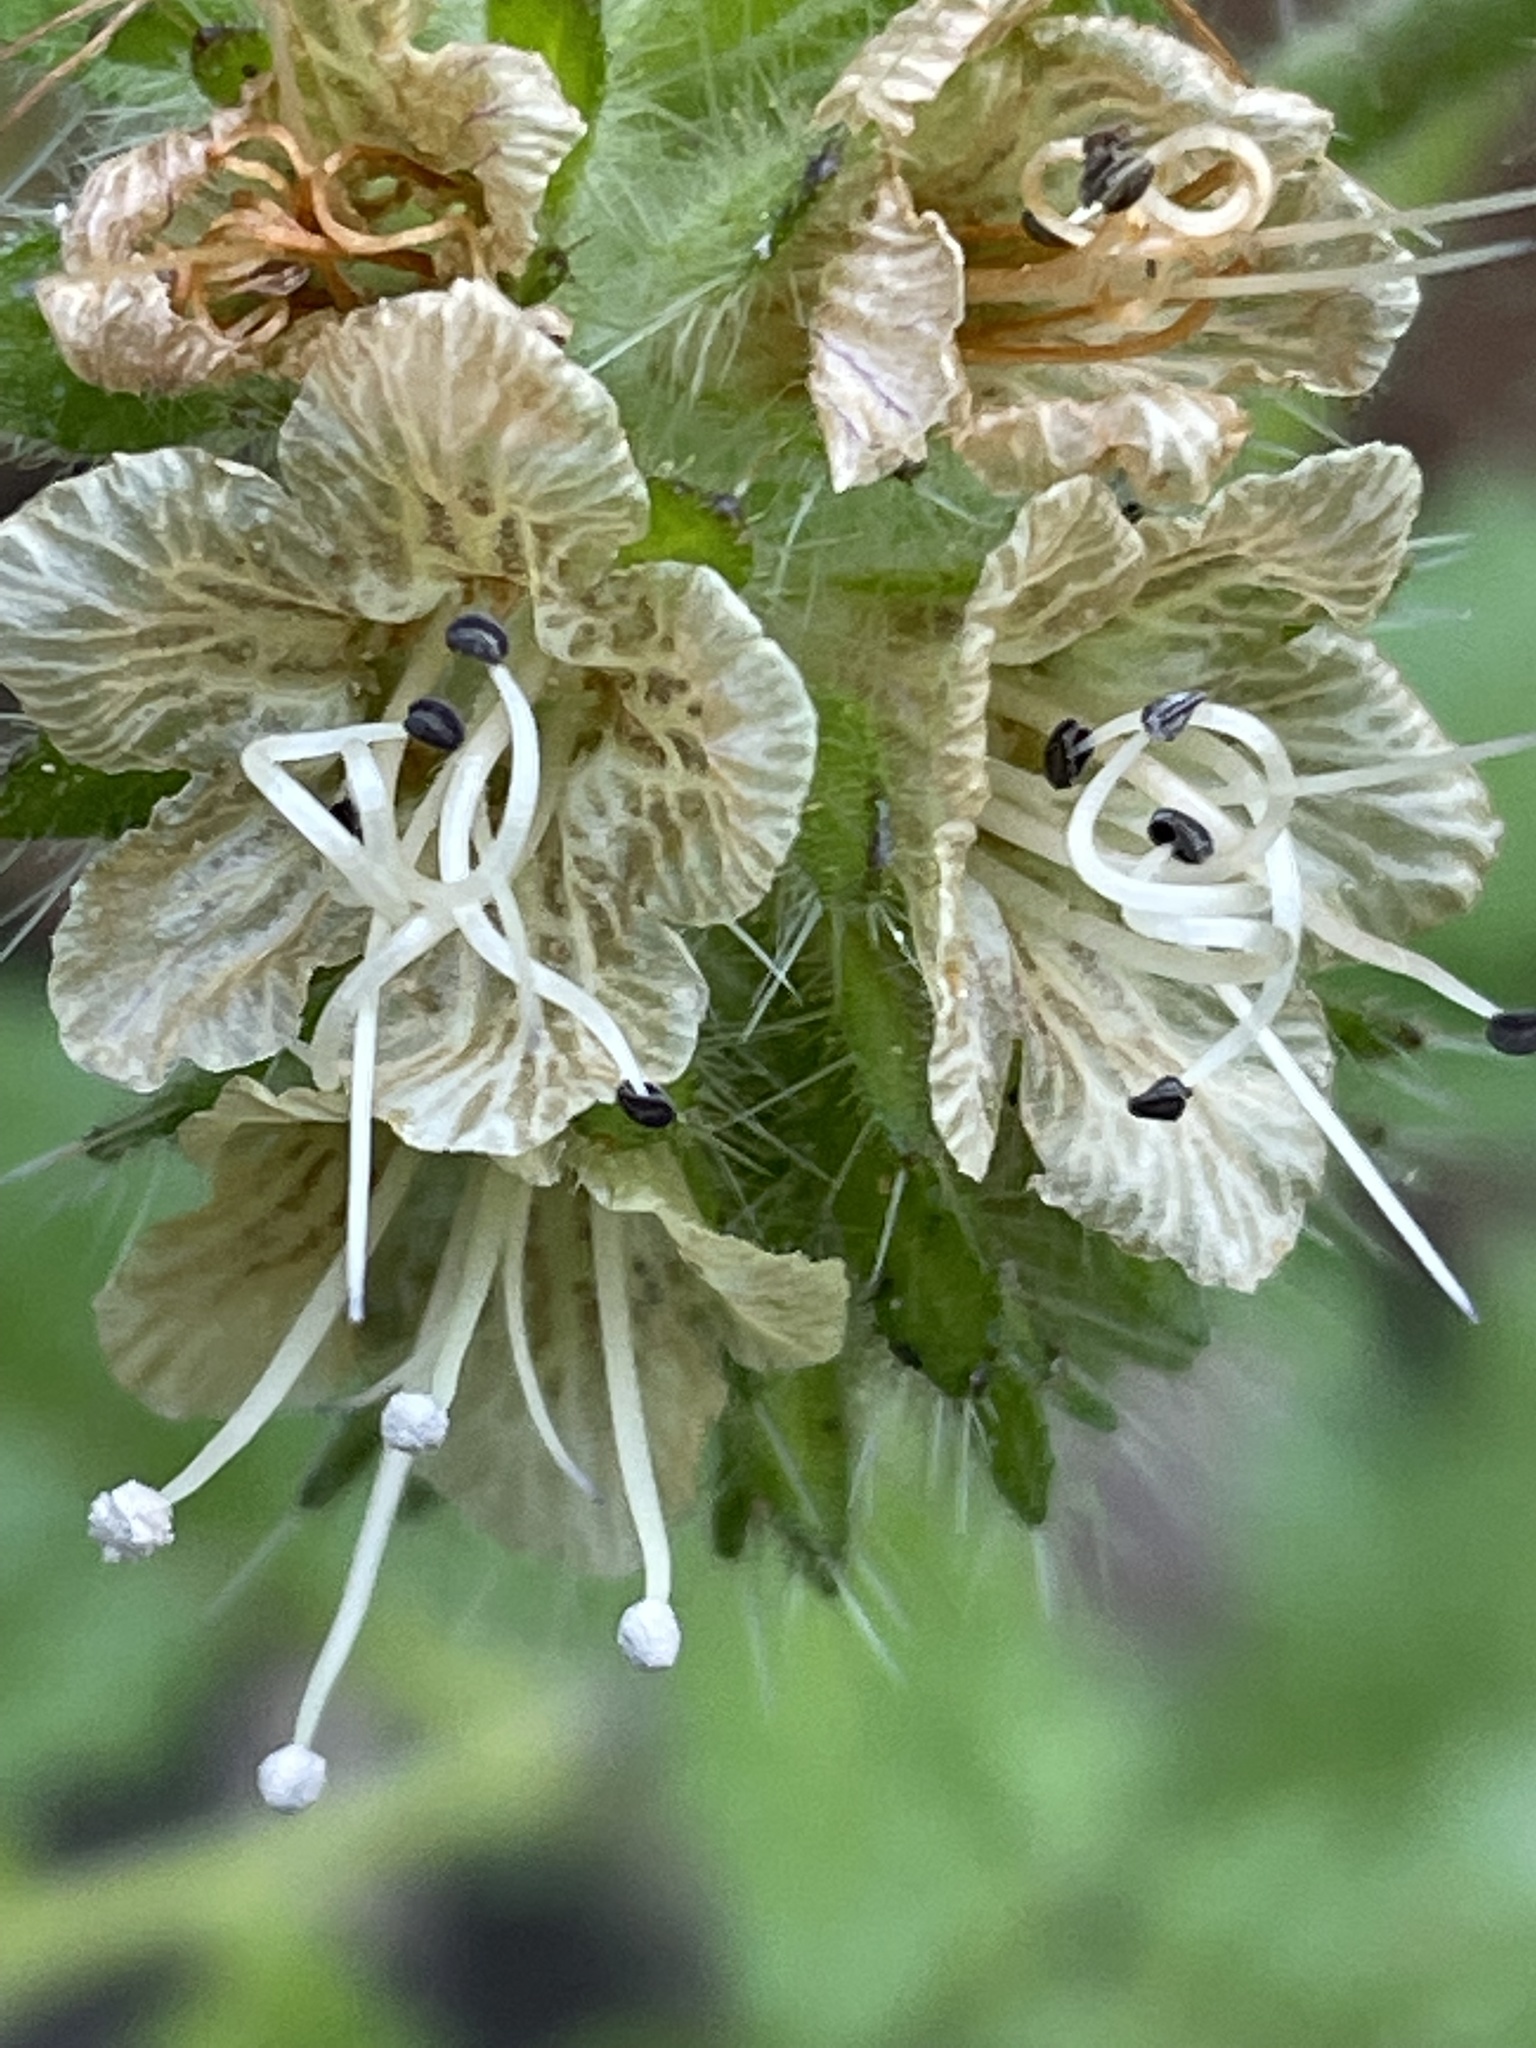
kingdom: Plantae
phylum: Tracheophyta
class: Magnoliopsida
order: Boraginales
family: Hydrophyllaceae
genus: Phacelia
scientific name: Phacelia malvifolia
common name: Mallow-leaf phacelia
